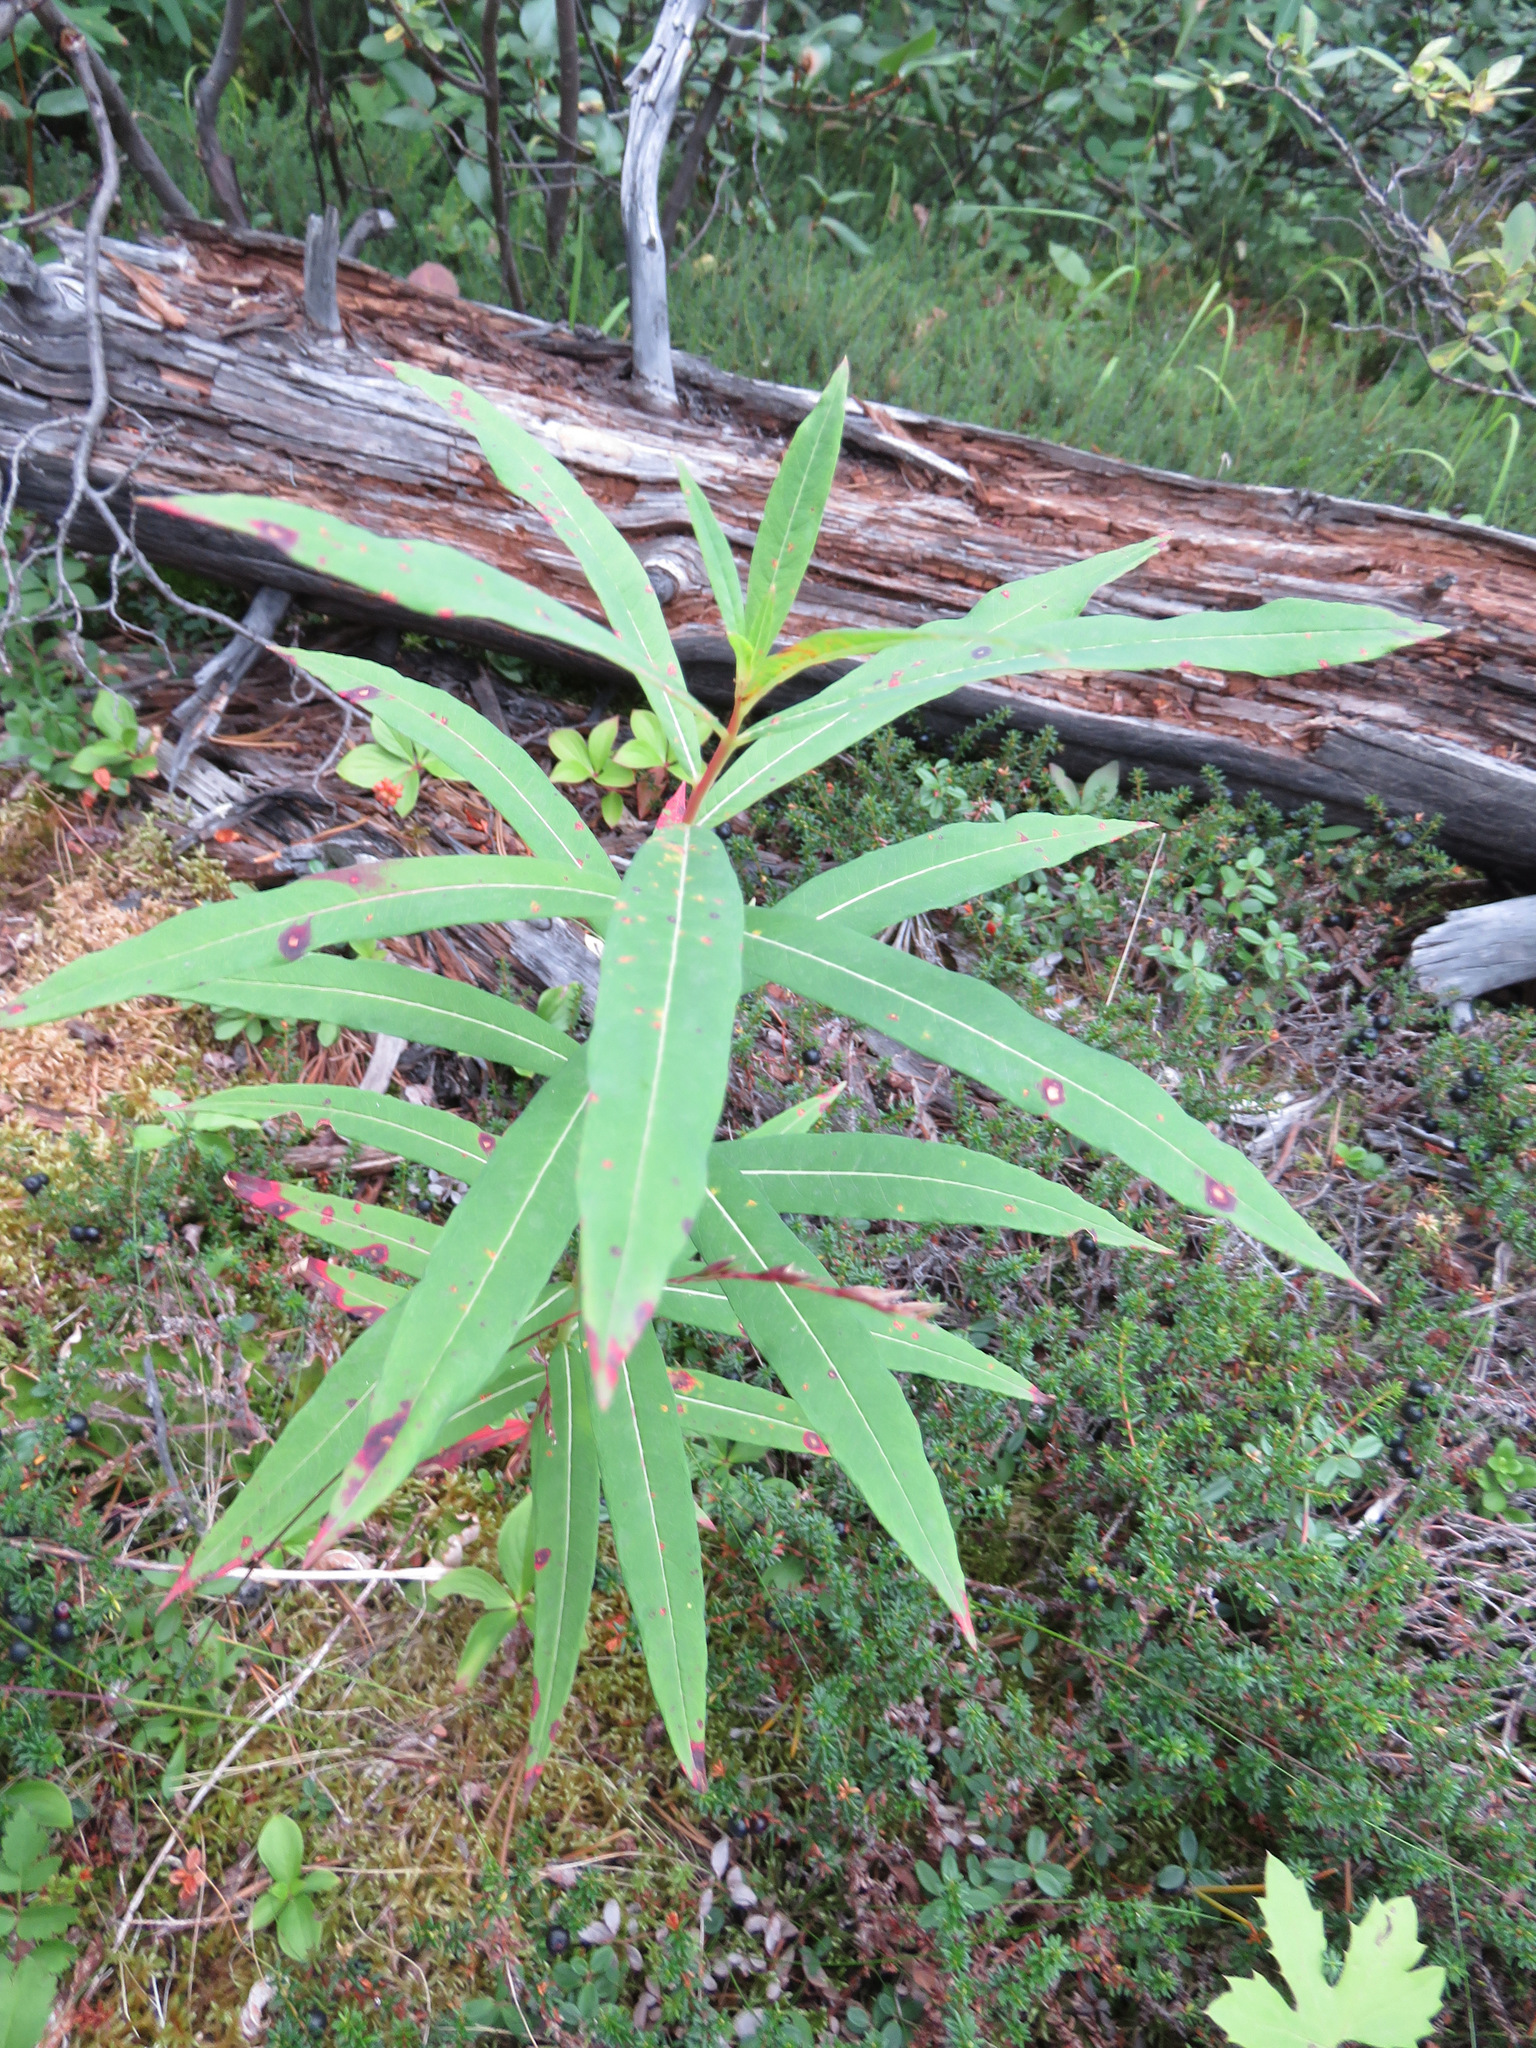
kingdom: Plantae
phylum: Tracheophyta
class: Magnoliopsida
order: Myrtales
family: Onagraceae
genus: Chamaenerion
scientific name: Chamaenerion angustifolium
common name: Fireweed
